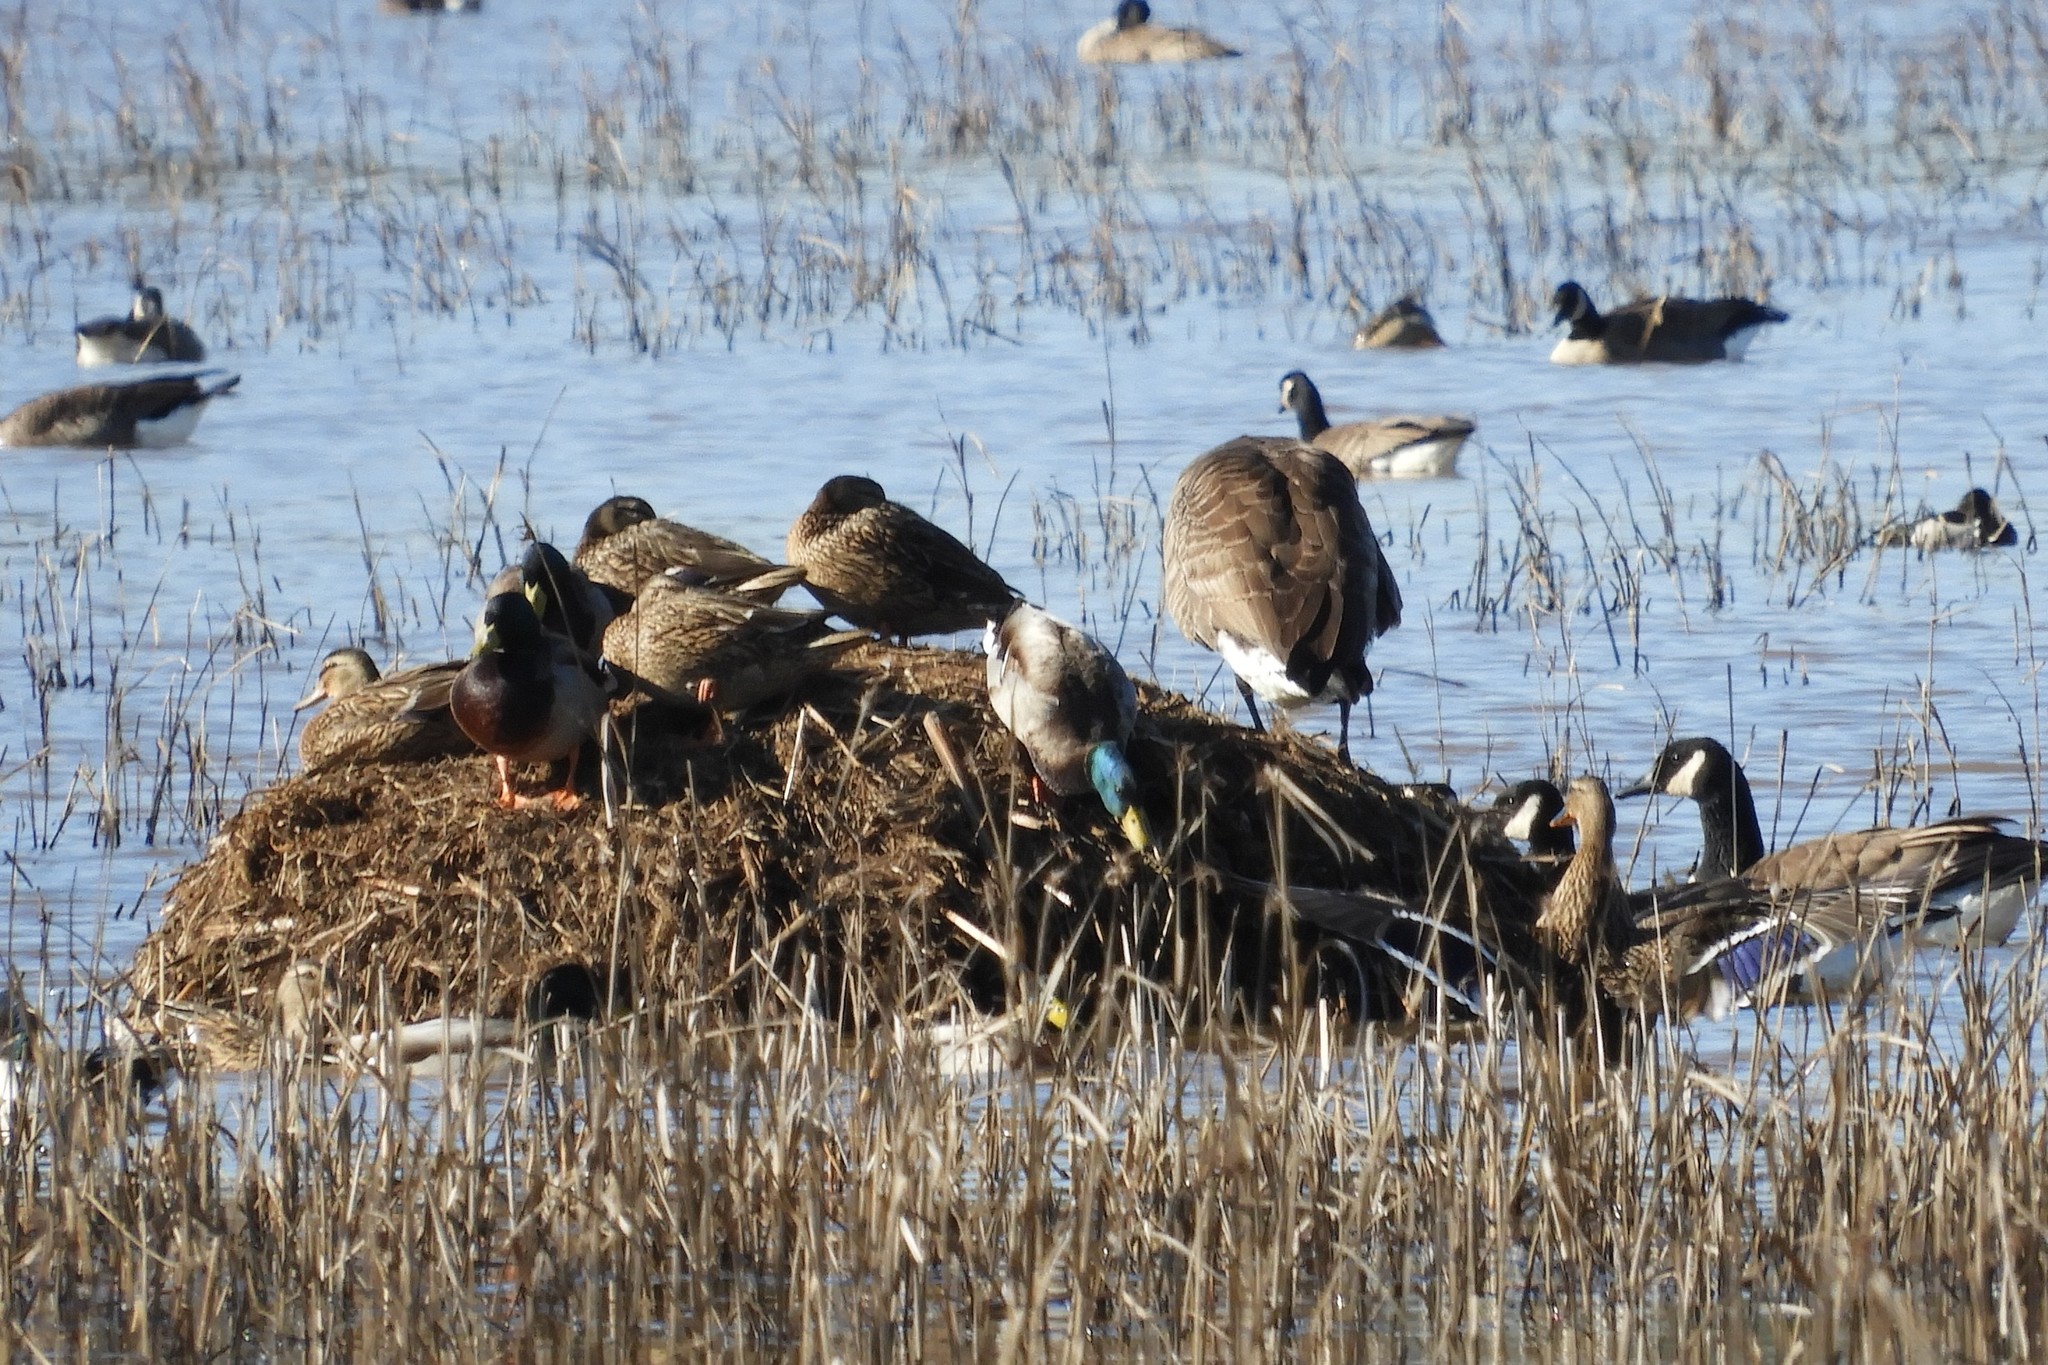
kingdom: Animalia
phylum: Chordata
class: Aves
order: Anseriformes
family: Anatidae
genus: Anas
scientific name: Anas platyrhynchos
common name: Mallard
